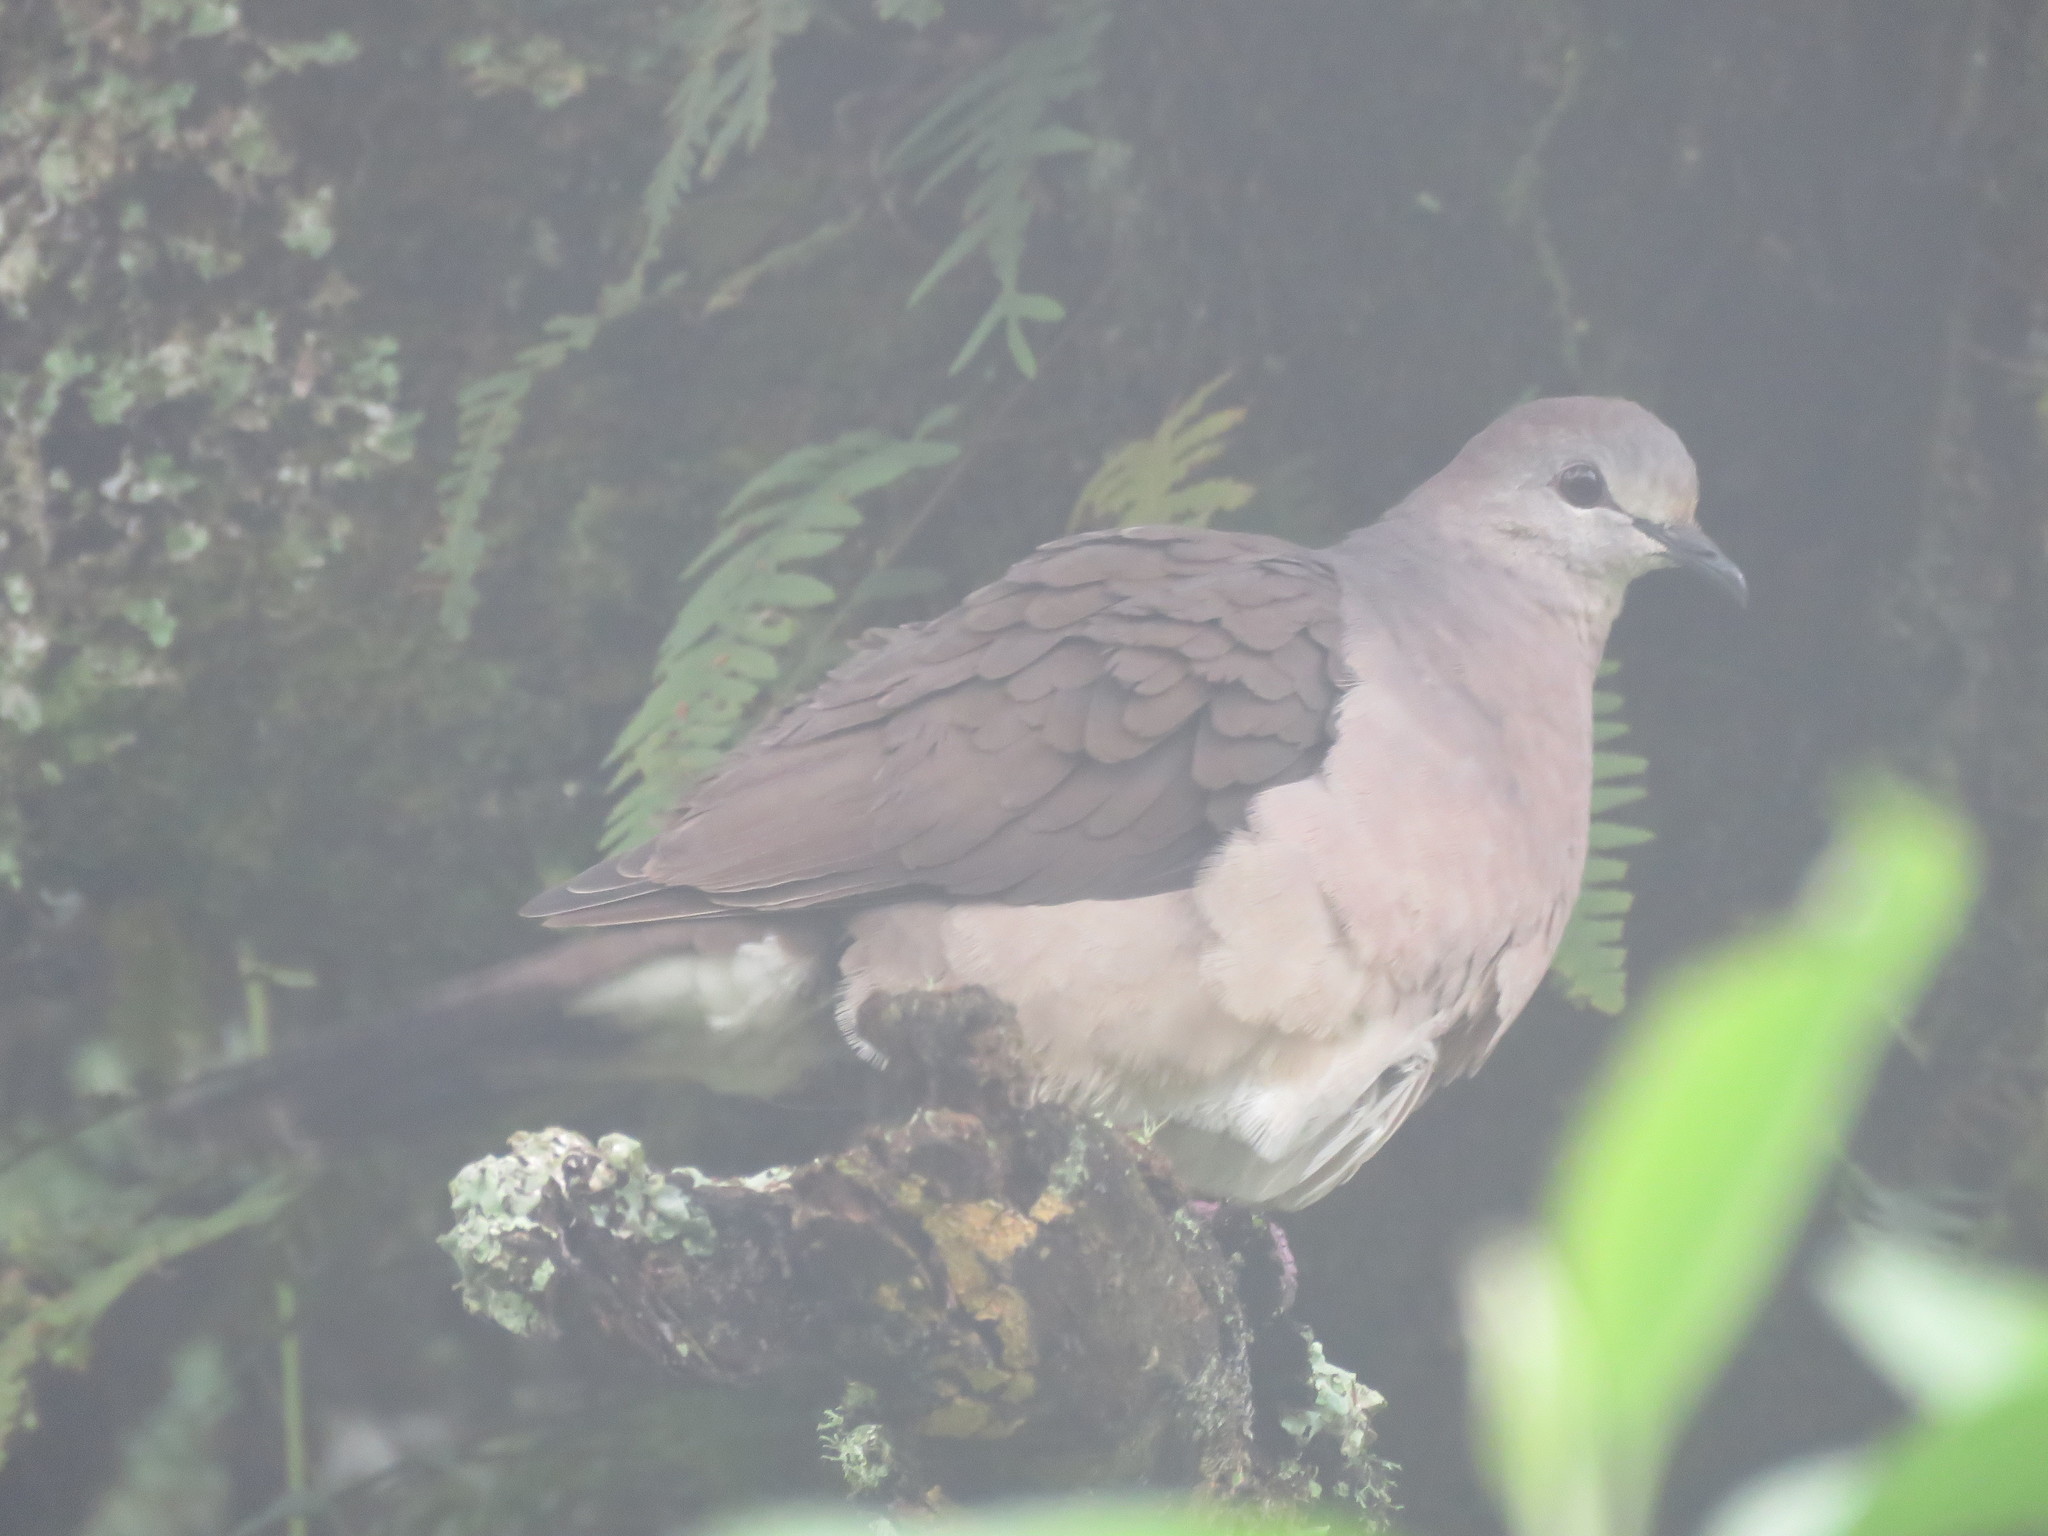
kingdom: Animalia
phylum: Chordata
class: Aves
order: Columbiformes
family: Columbidae
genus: Leptotila
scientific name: Leptotila megalura
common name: Yungas dove
